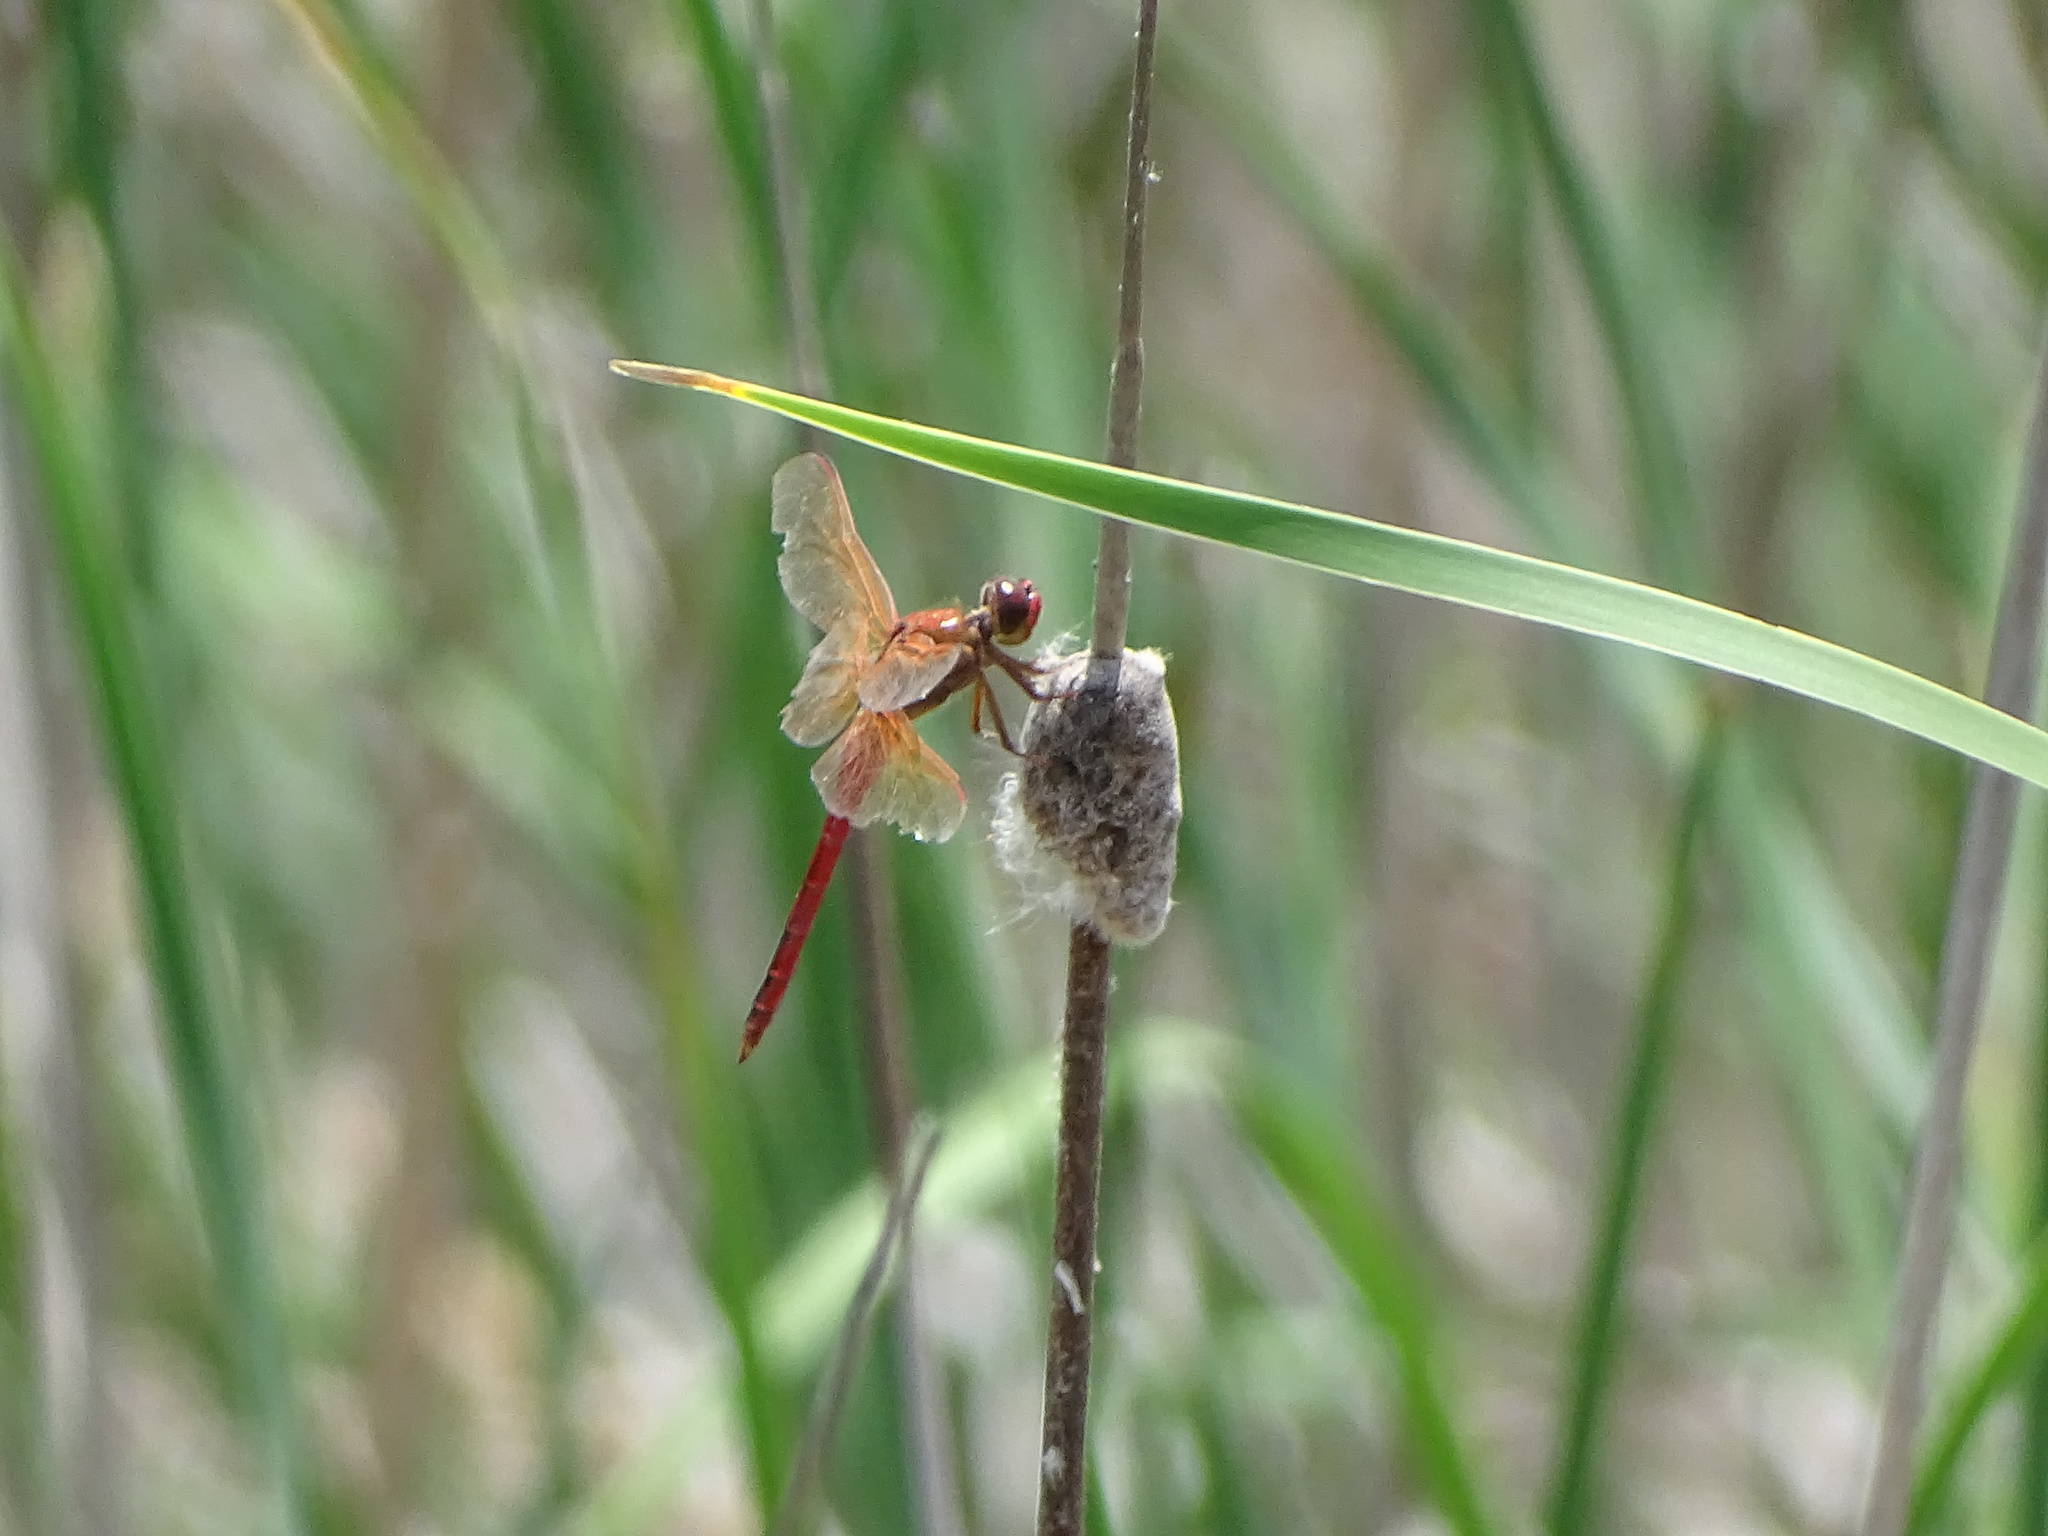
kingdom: Animalia
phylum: Arthropoda
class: Insecta
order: Odonata
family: Libellulidae
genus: Libellula
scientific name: Libellula needhami
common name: Needham's skimmer
